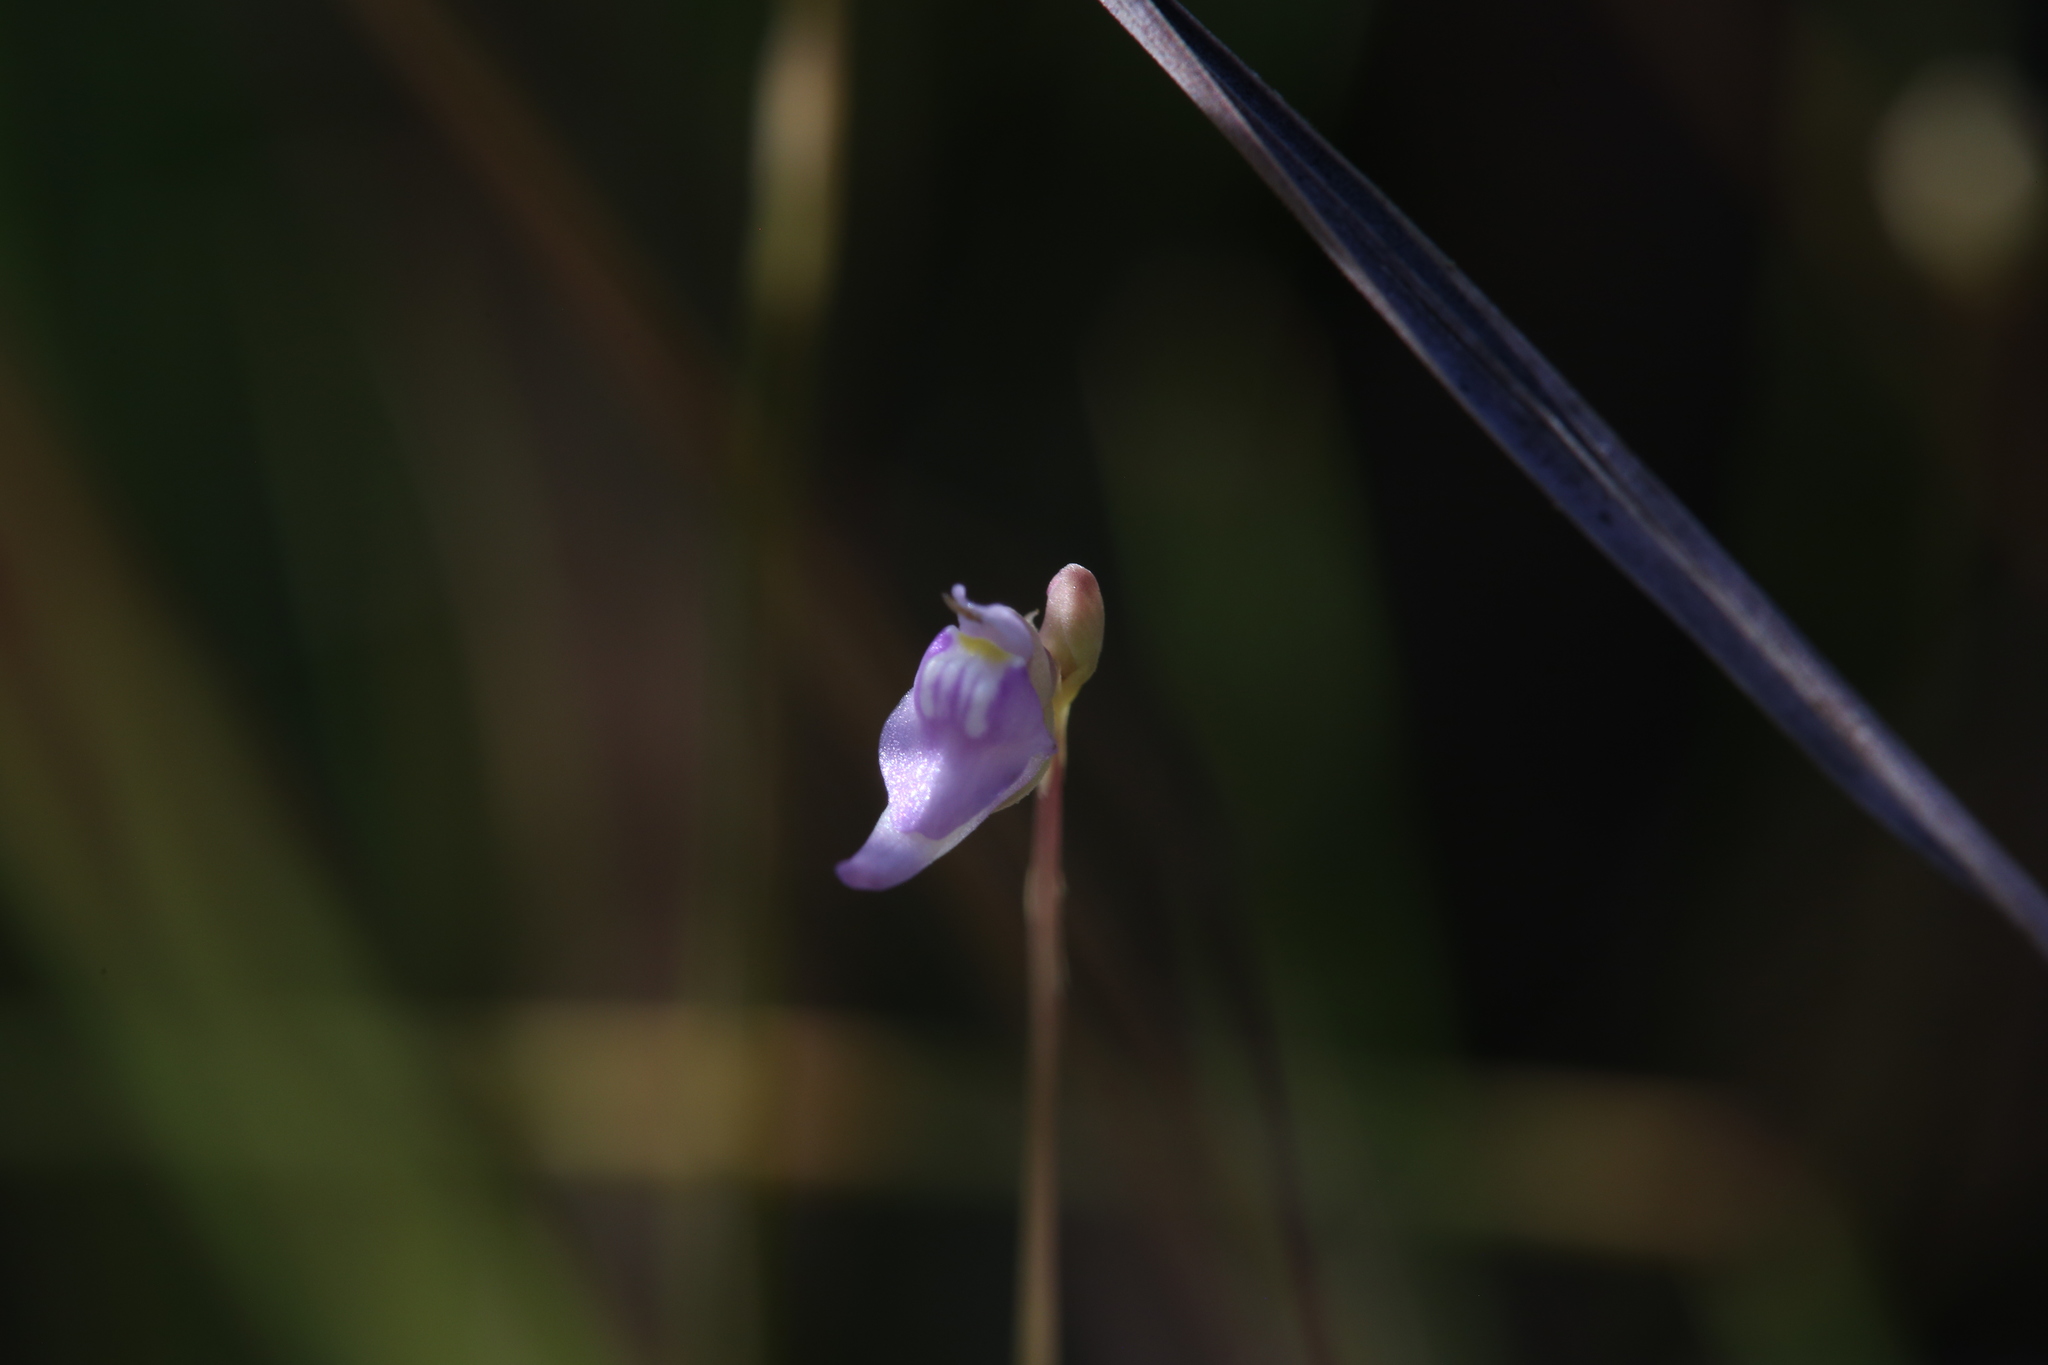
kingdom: Plantae
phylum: Tracheophyta
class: Magnoliopsida
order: Lamiales
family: Lentibulariaceae
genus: Utricularia
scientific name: Utricularia caerulea
